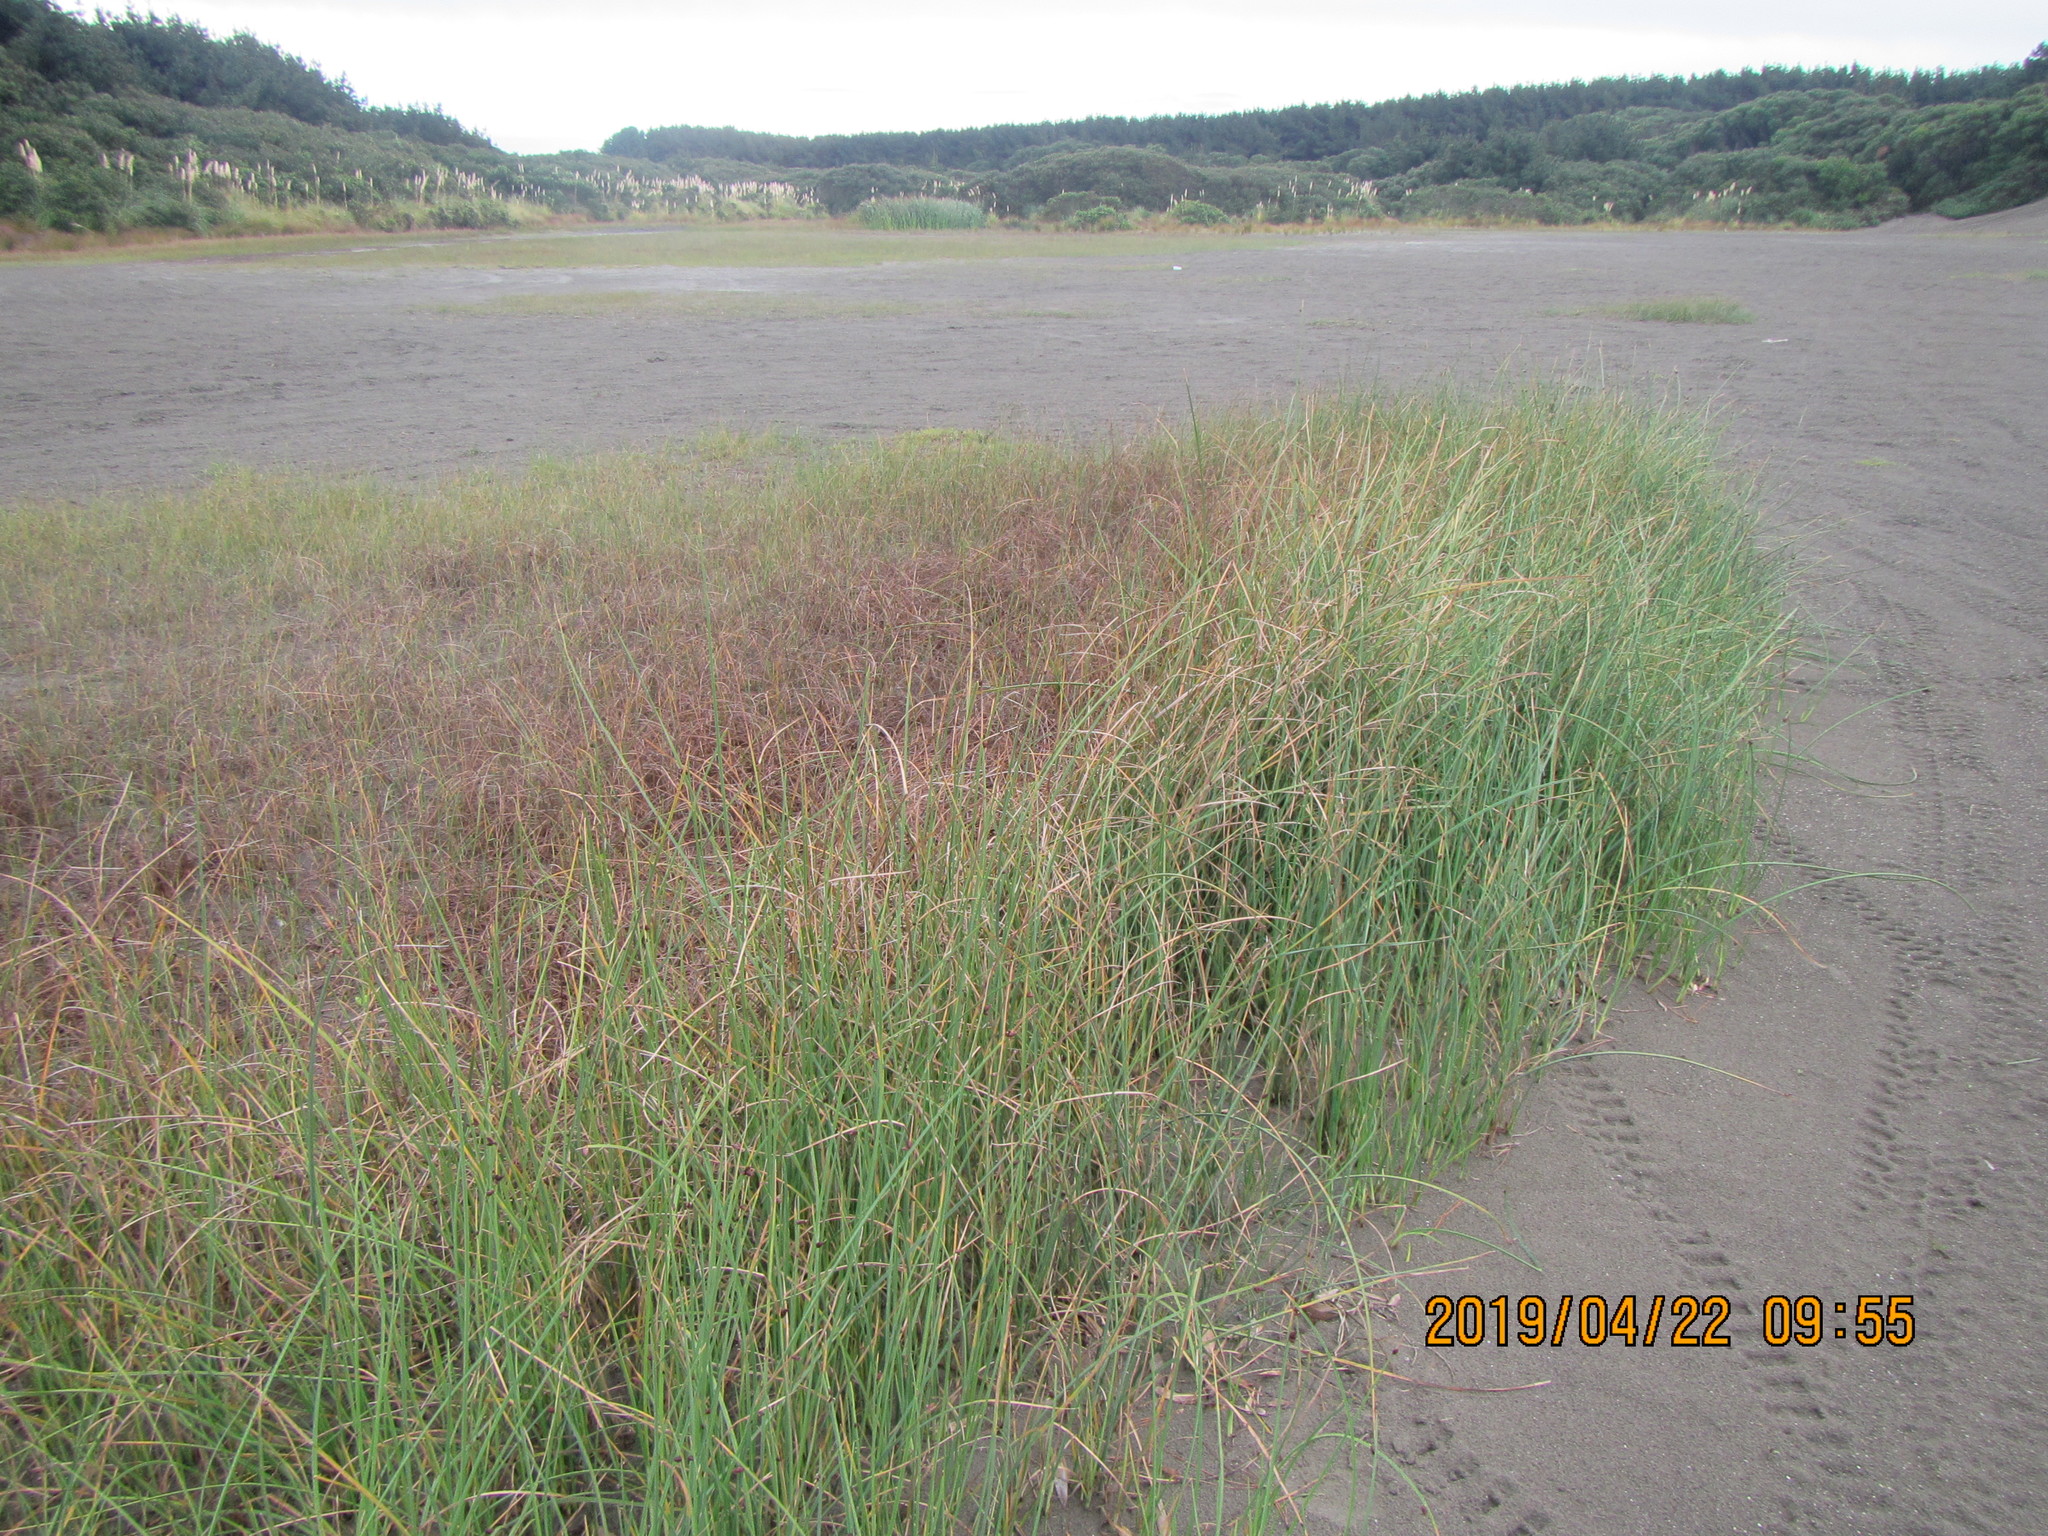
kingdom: Plantae
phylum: Tracheophyta
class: Liliopsida
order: Poales
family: Cyperaceae
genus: Schoenoplectus
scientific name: Schoenoplectus pungens
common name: Sharp club-rush
